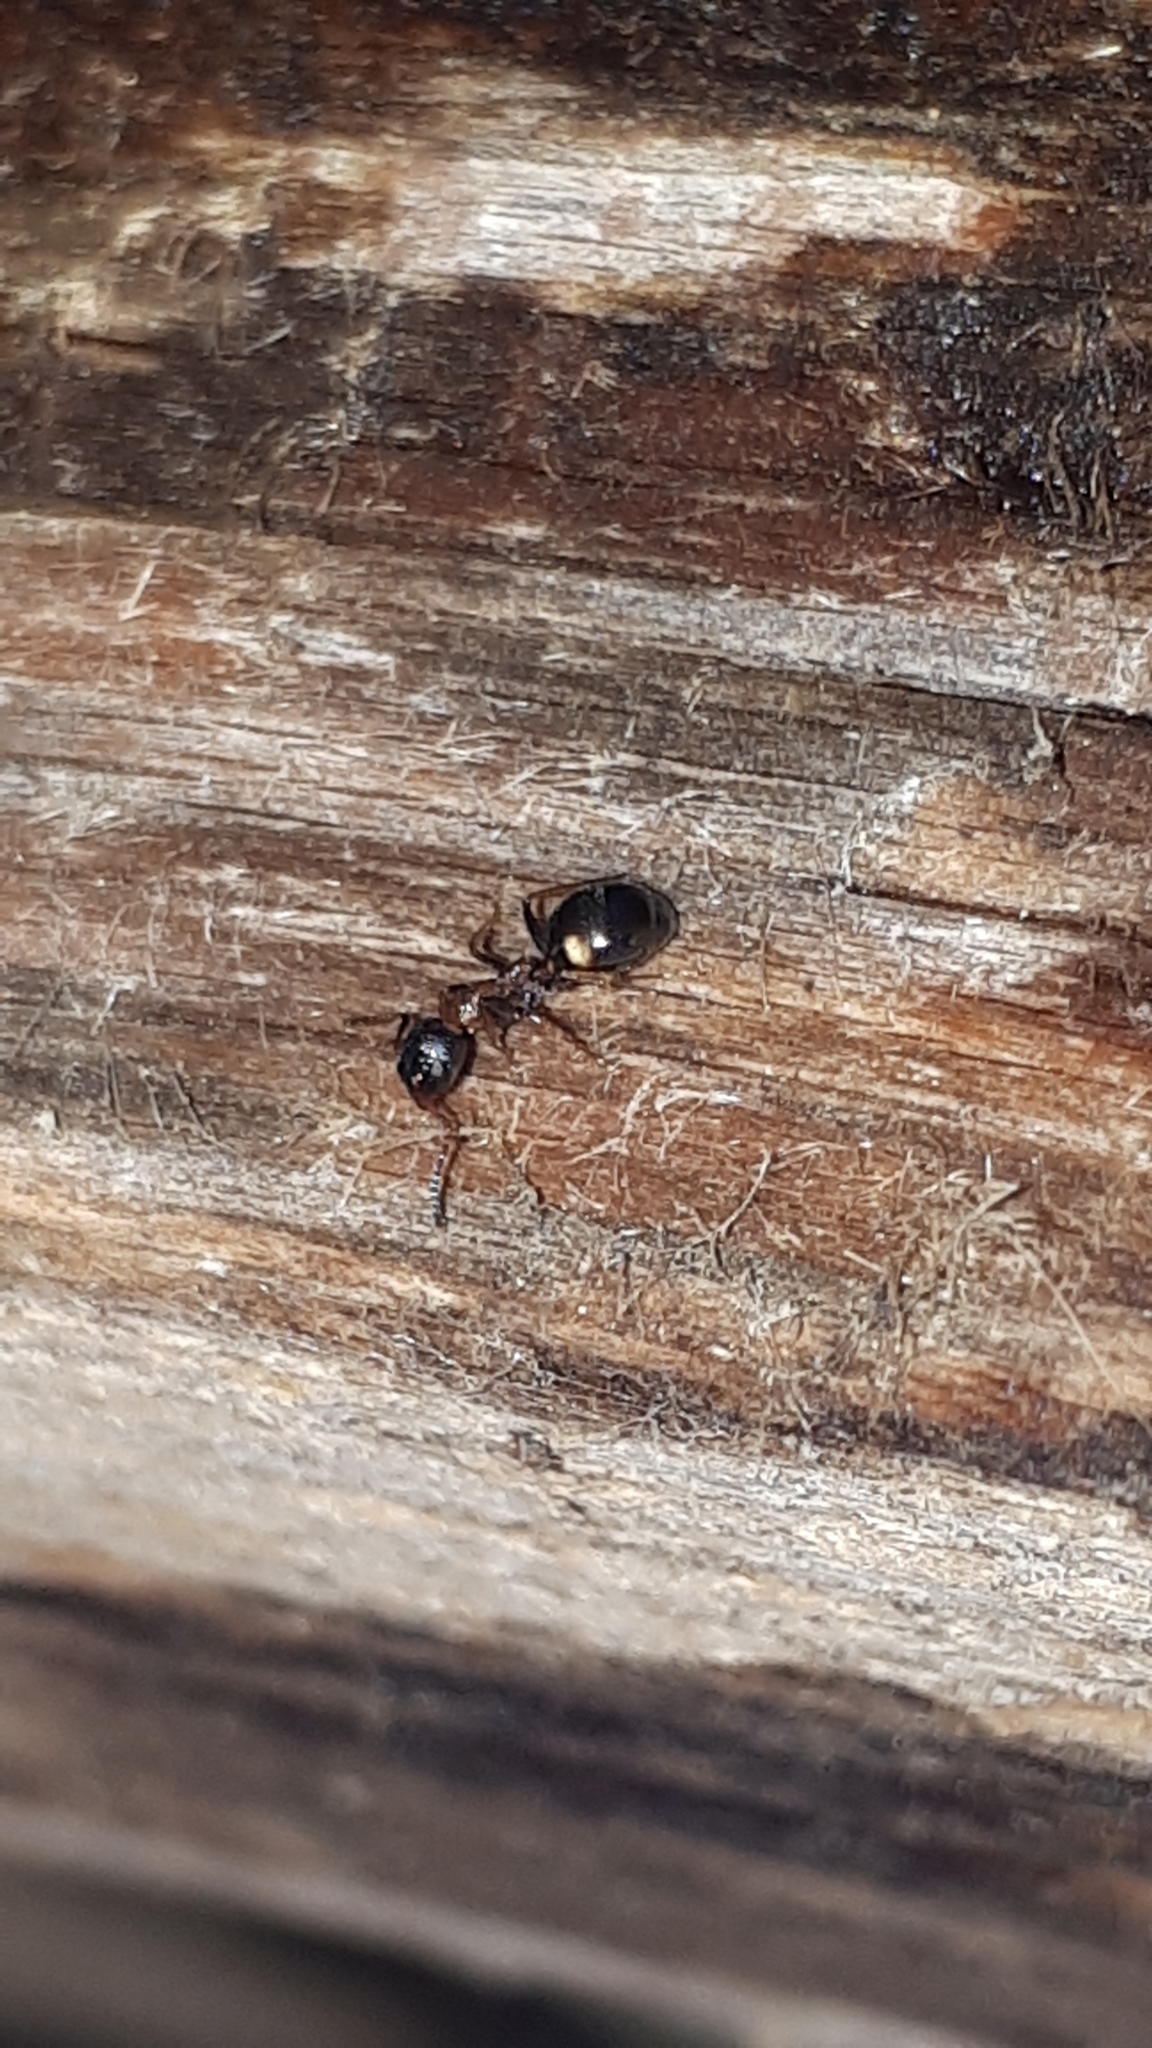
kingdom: Animalia
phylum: Arthropoda
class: Insecta
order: Hymenoptera
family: Formicidae
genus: Dolichoderus
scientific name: Dolichoderus quadripunctatus
